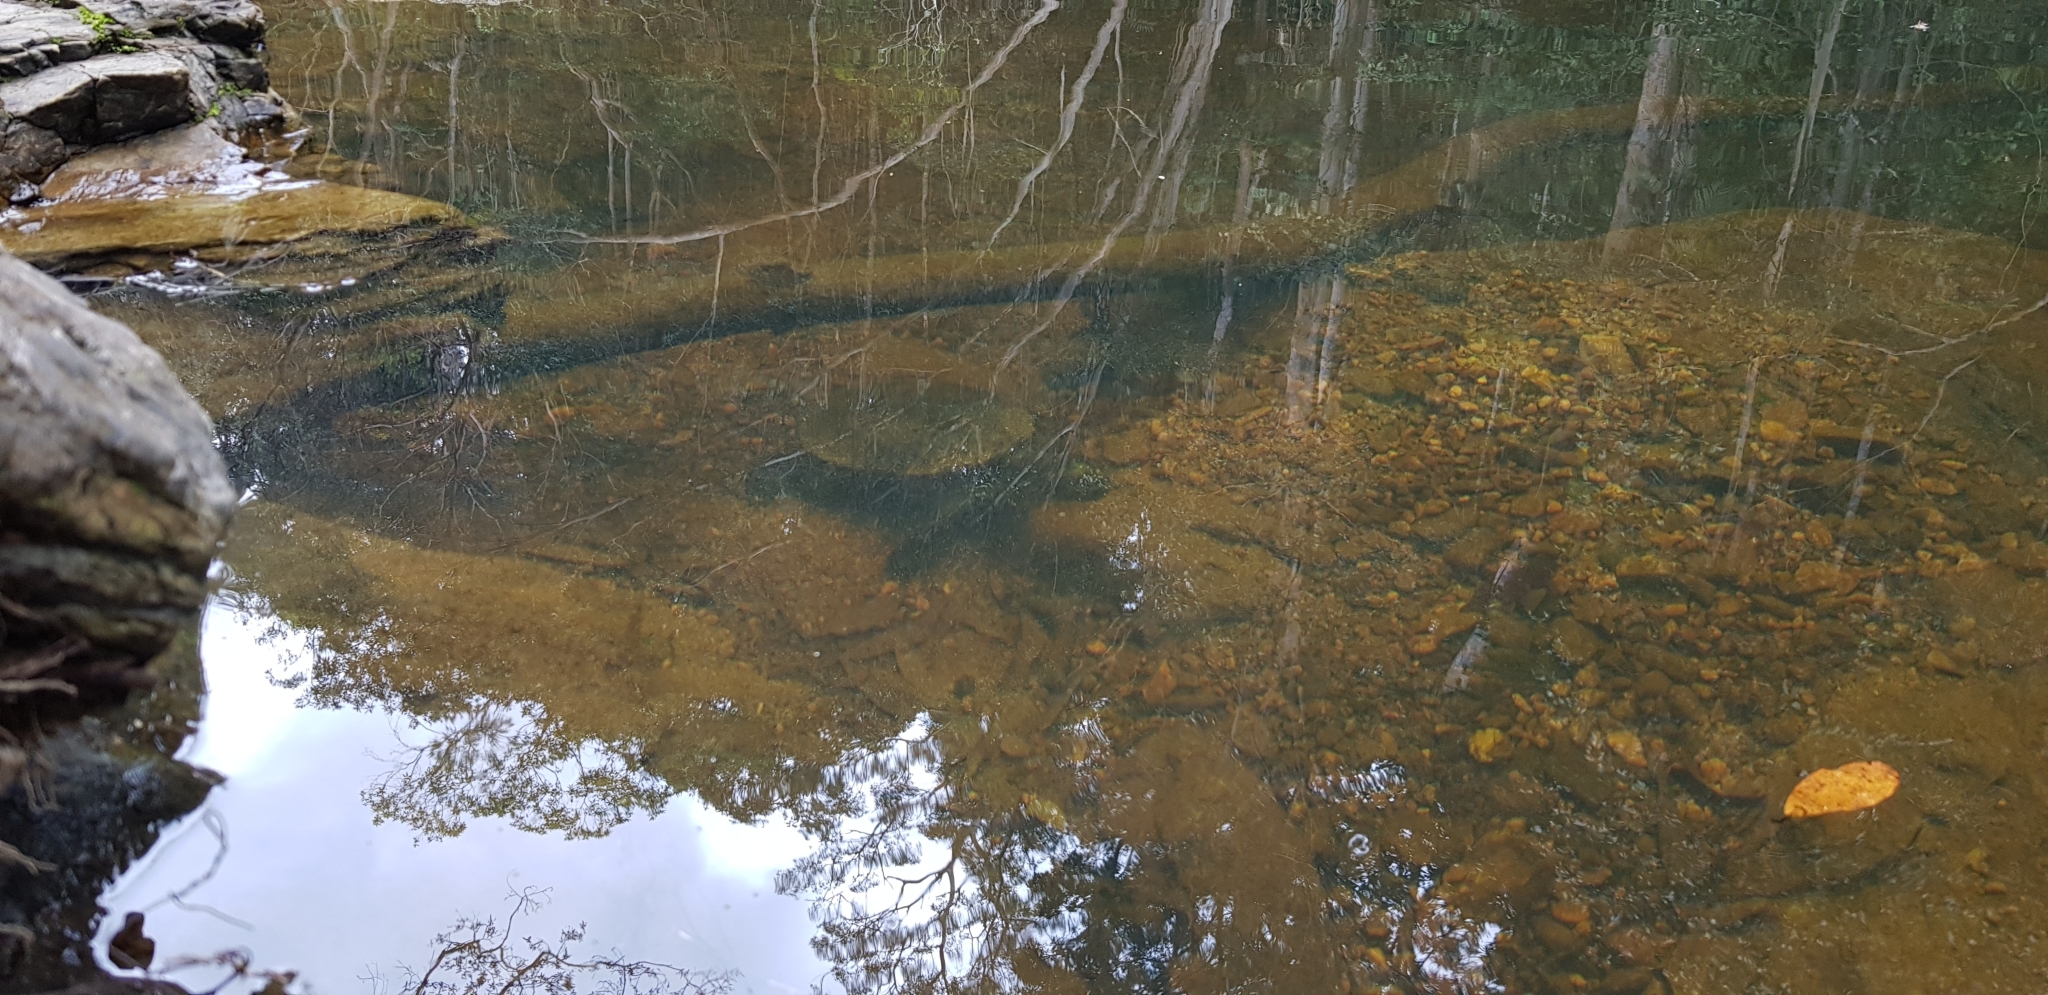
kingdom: Animalia
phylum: Chordata
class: Testudines
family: Chelidae
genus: Myuchelys
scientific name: Myuchelys latisternum
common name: Serrated snapping turtle
